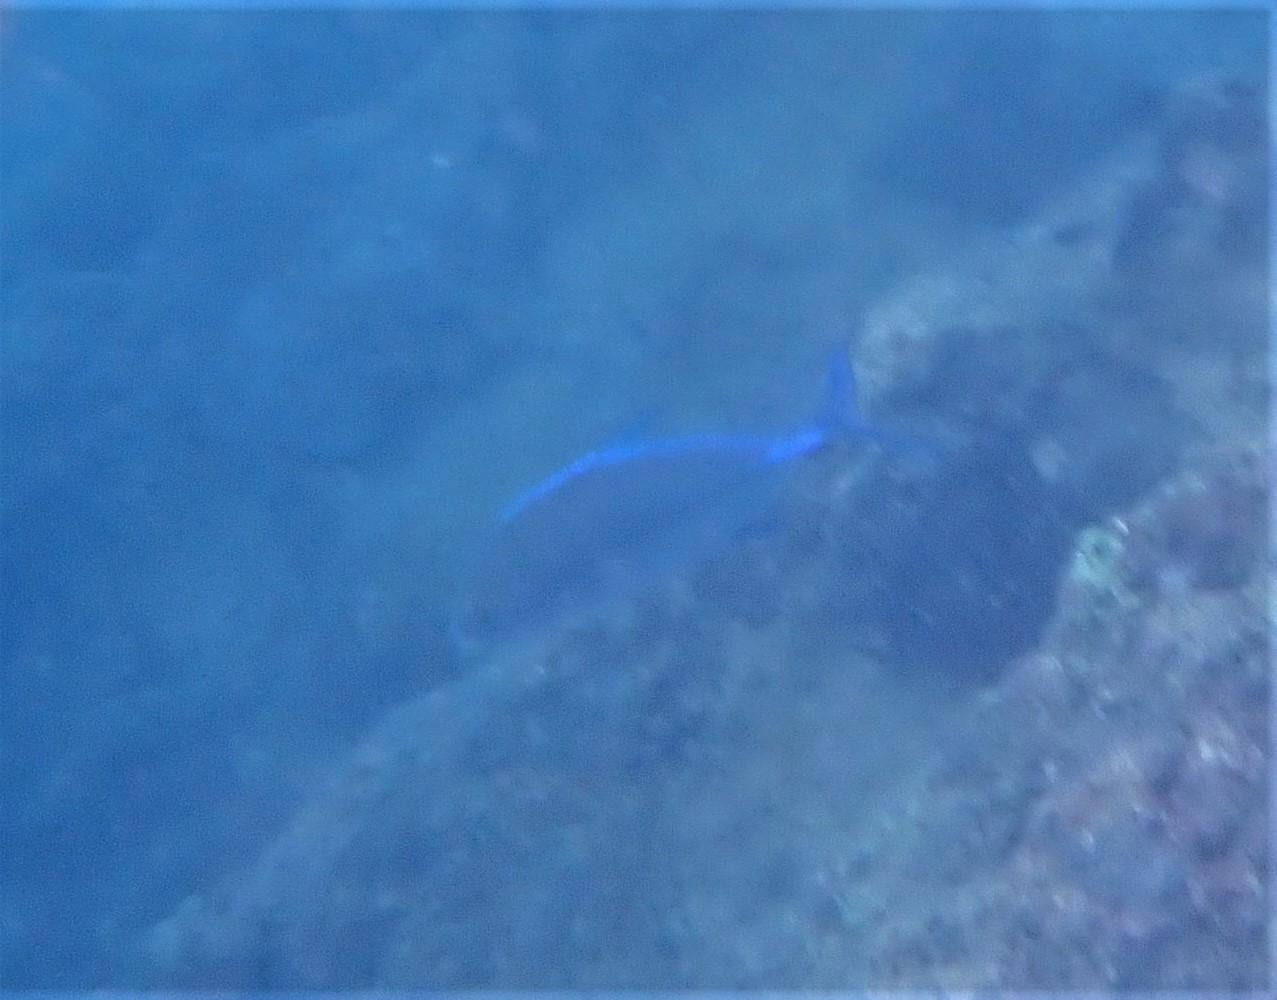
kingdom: Animalia
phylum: Chordata
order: Perciformes
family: Carangidae
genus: Caranx
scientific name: Caranx melampygus
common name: Bluefin trevally
